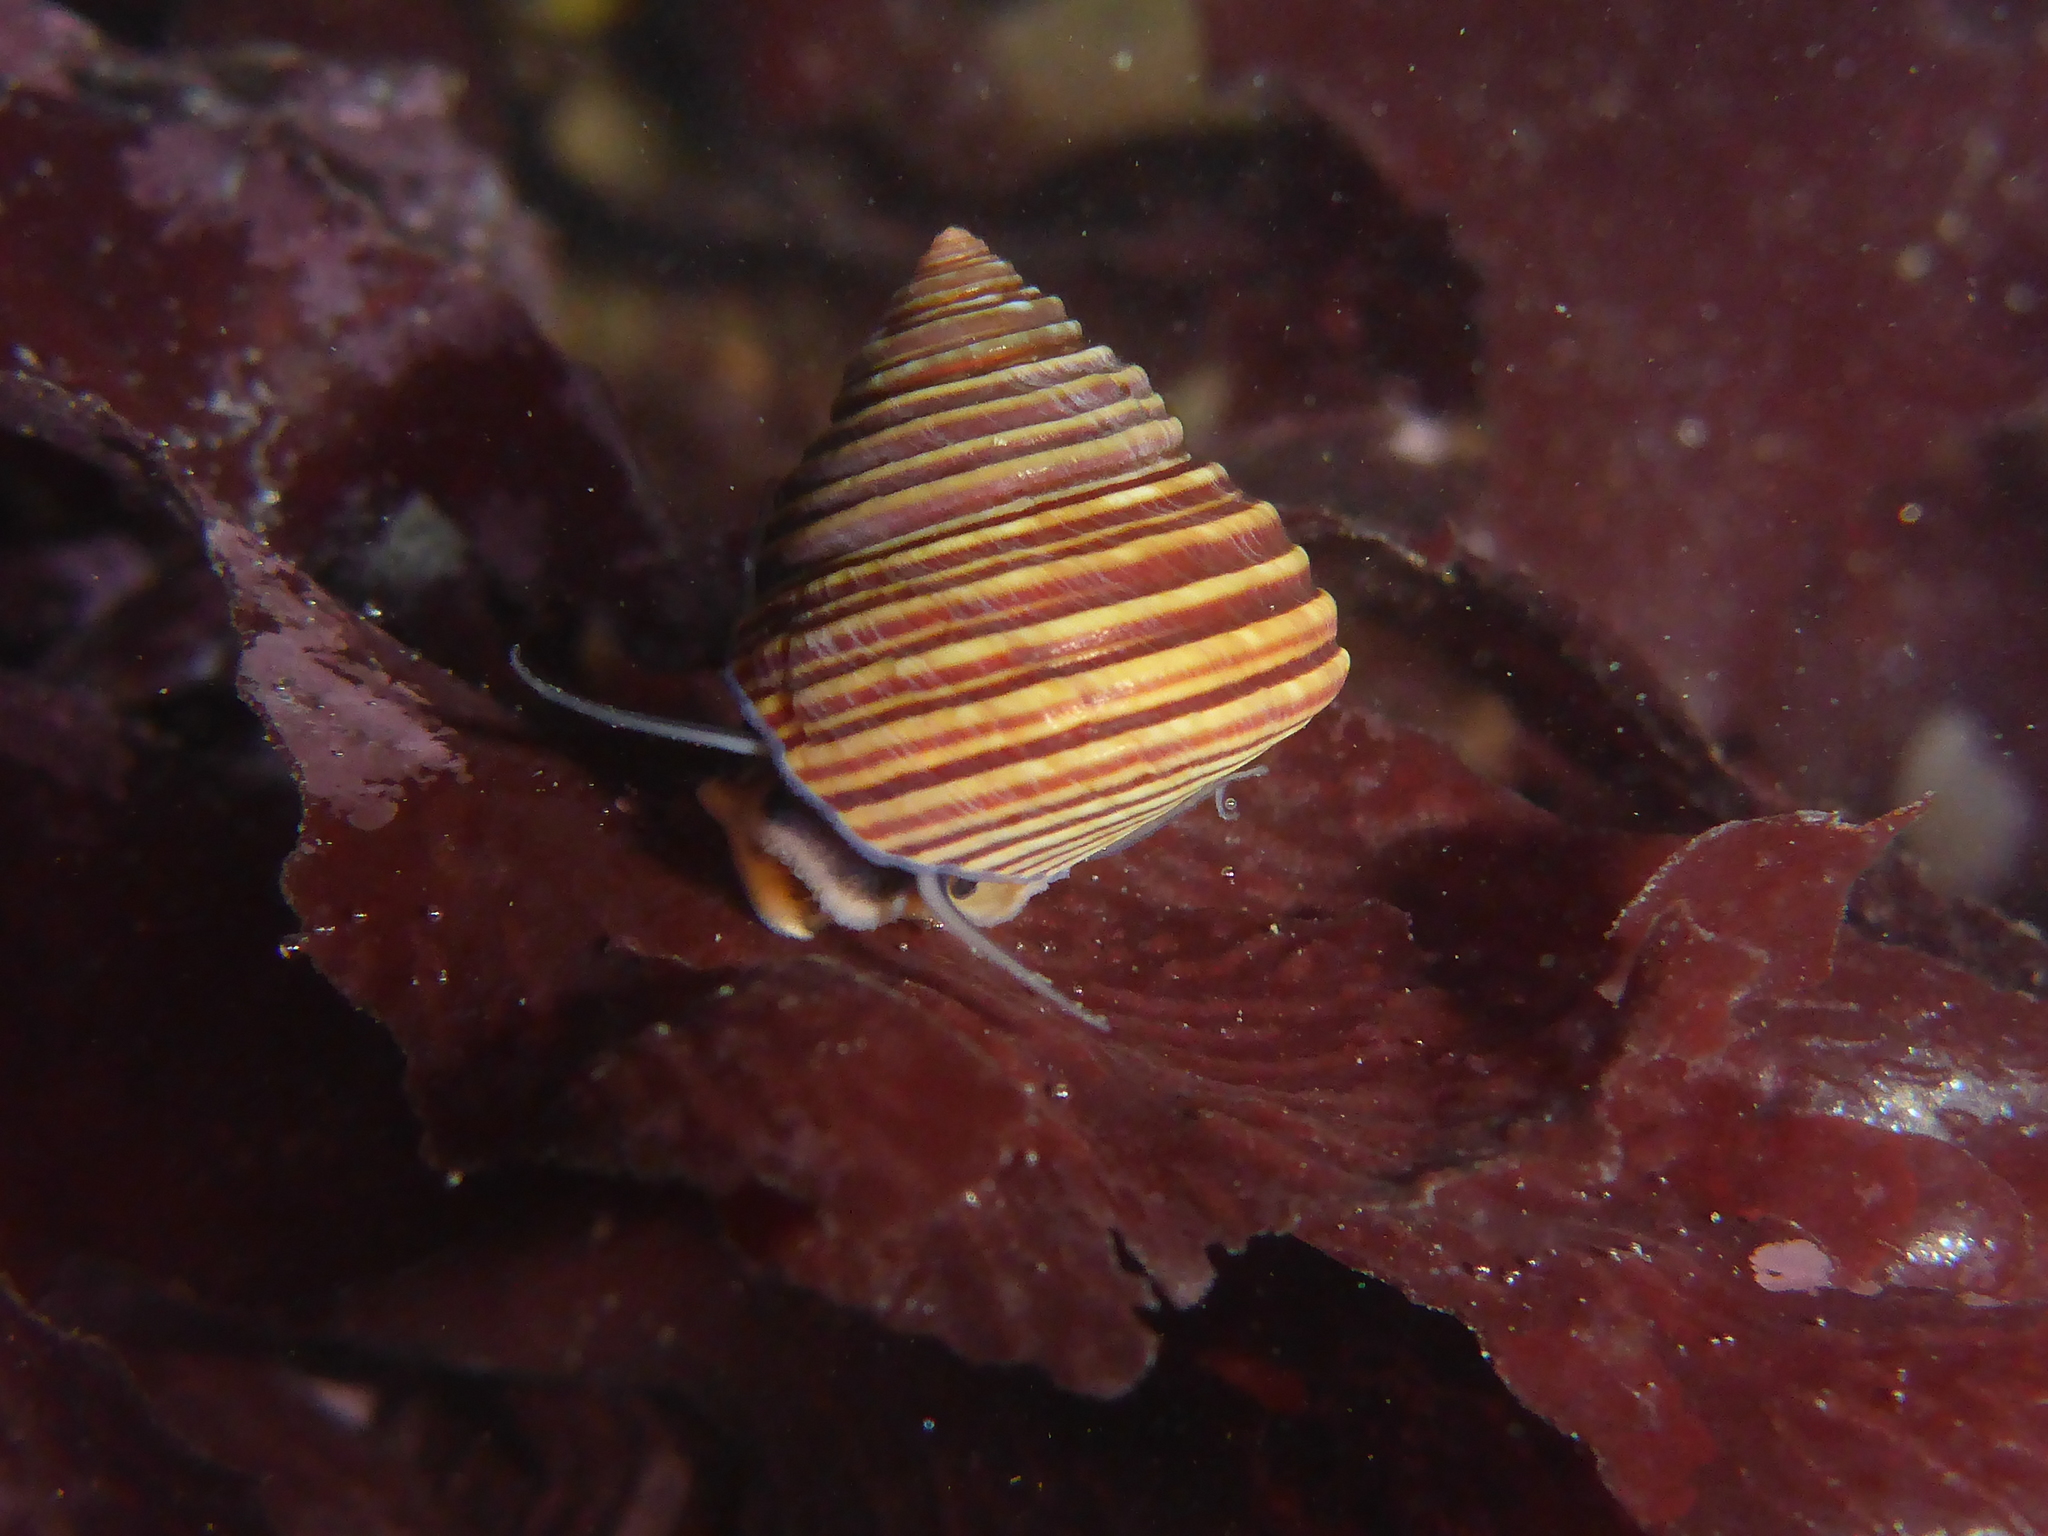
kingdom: Animalia
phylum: Mollusca
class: Gastropoda
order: Trochida
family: Calliostomatidae
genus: Calliostoma
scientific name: Calliostoma ligatum
